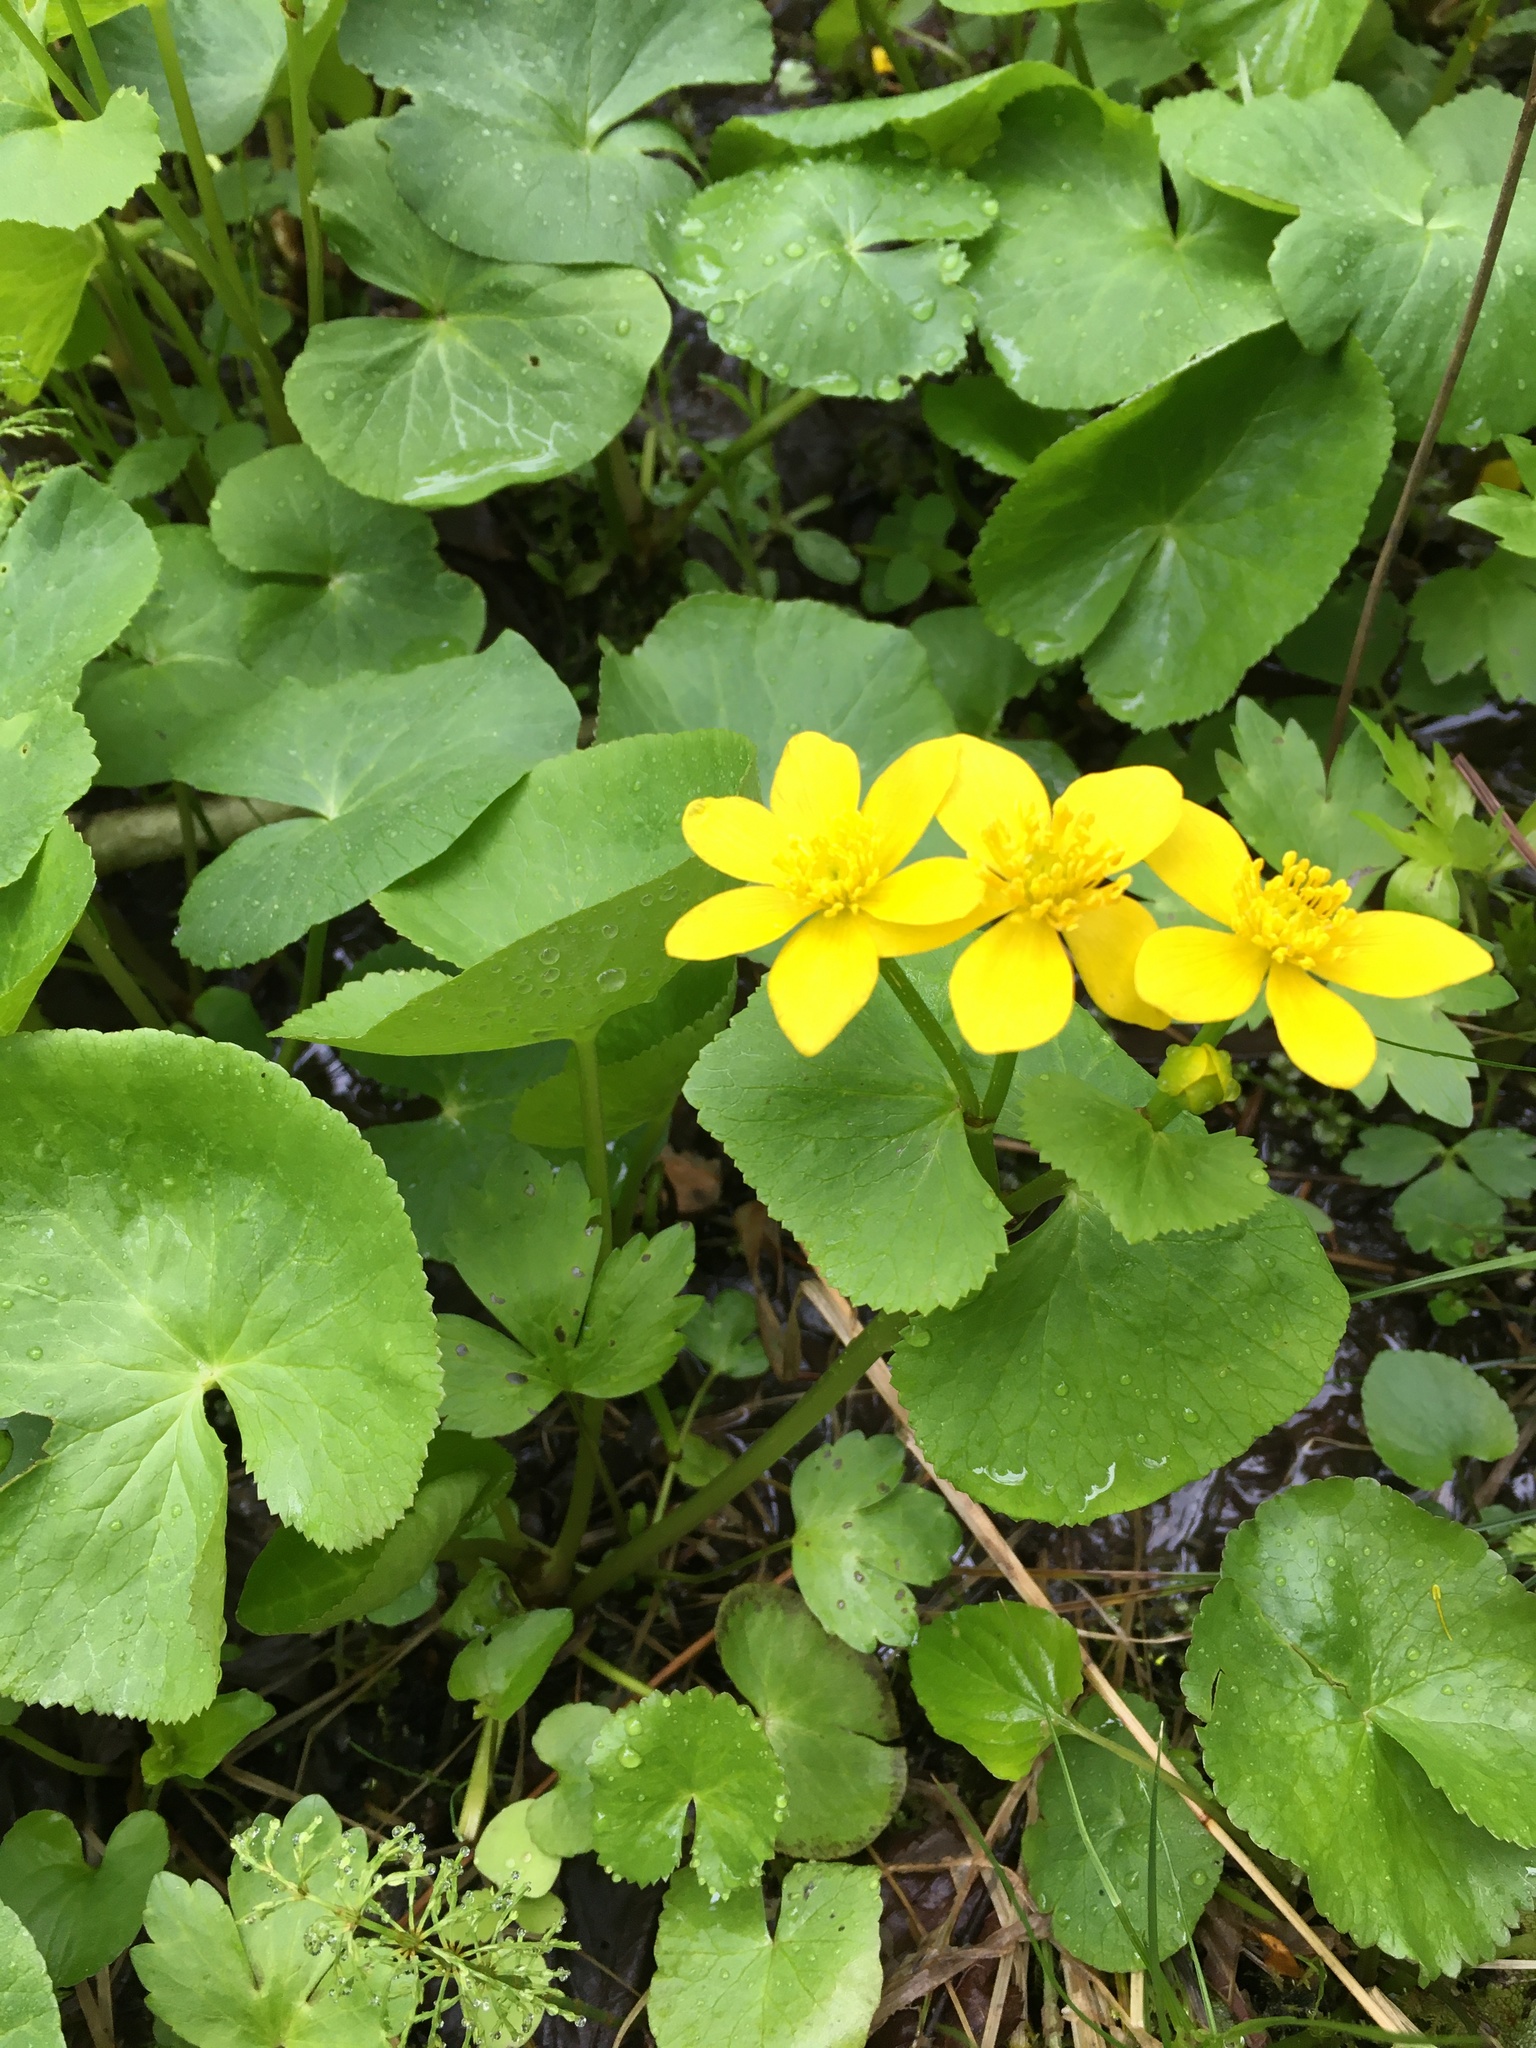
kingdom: Plantae
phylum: Tracheophyta
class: Magnoliopsida
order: Ranunculales
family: Ranunculaceae
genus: Caltha
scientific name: Caltha palustris
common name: Marsh marigold
